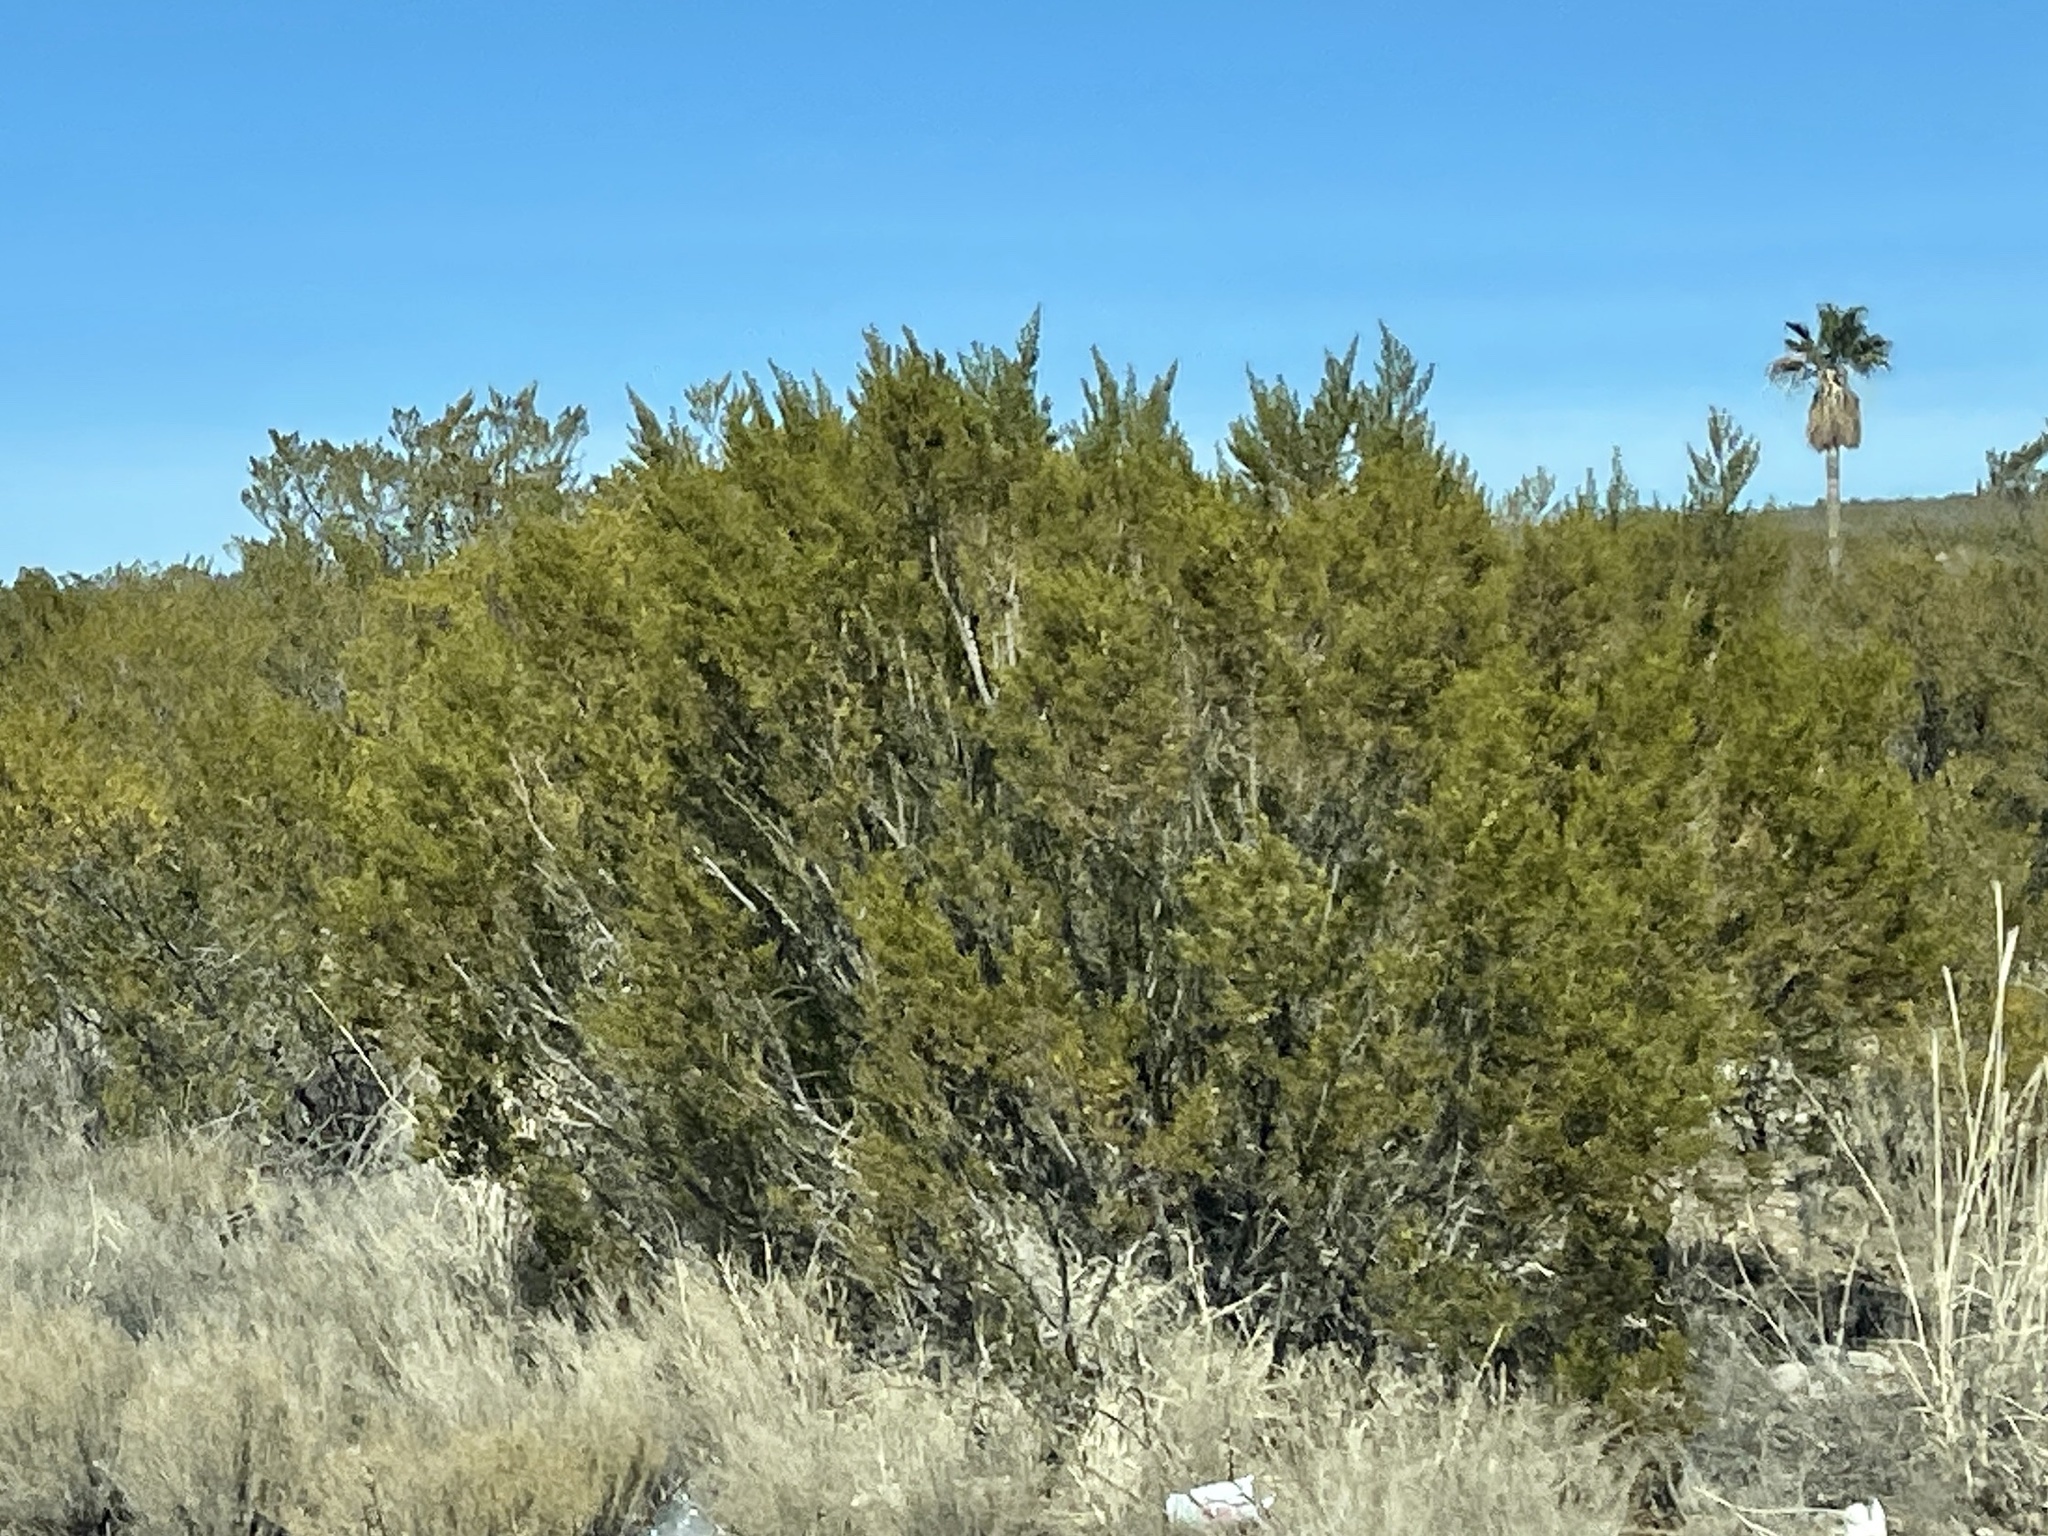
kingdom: Plantae
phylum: Tracheophyta
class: Magnoliopsida
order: Zygophyllales
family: Zygophyllaceae
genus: Larrea
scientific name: Larrea tridentata
